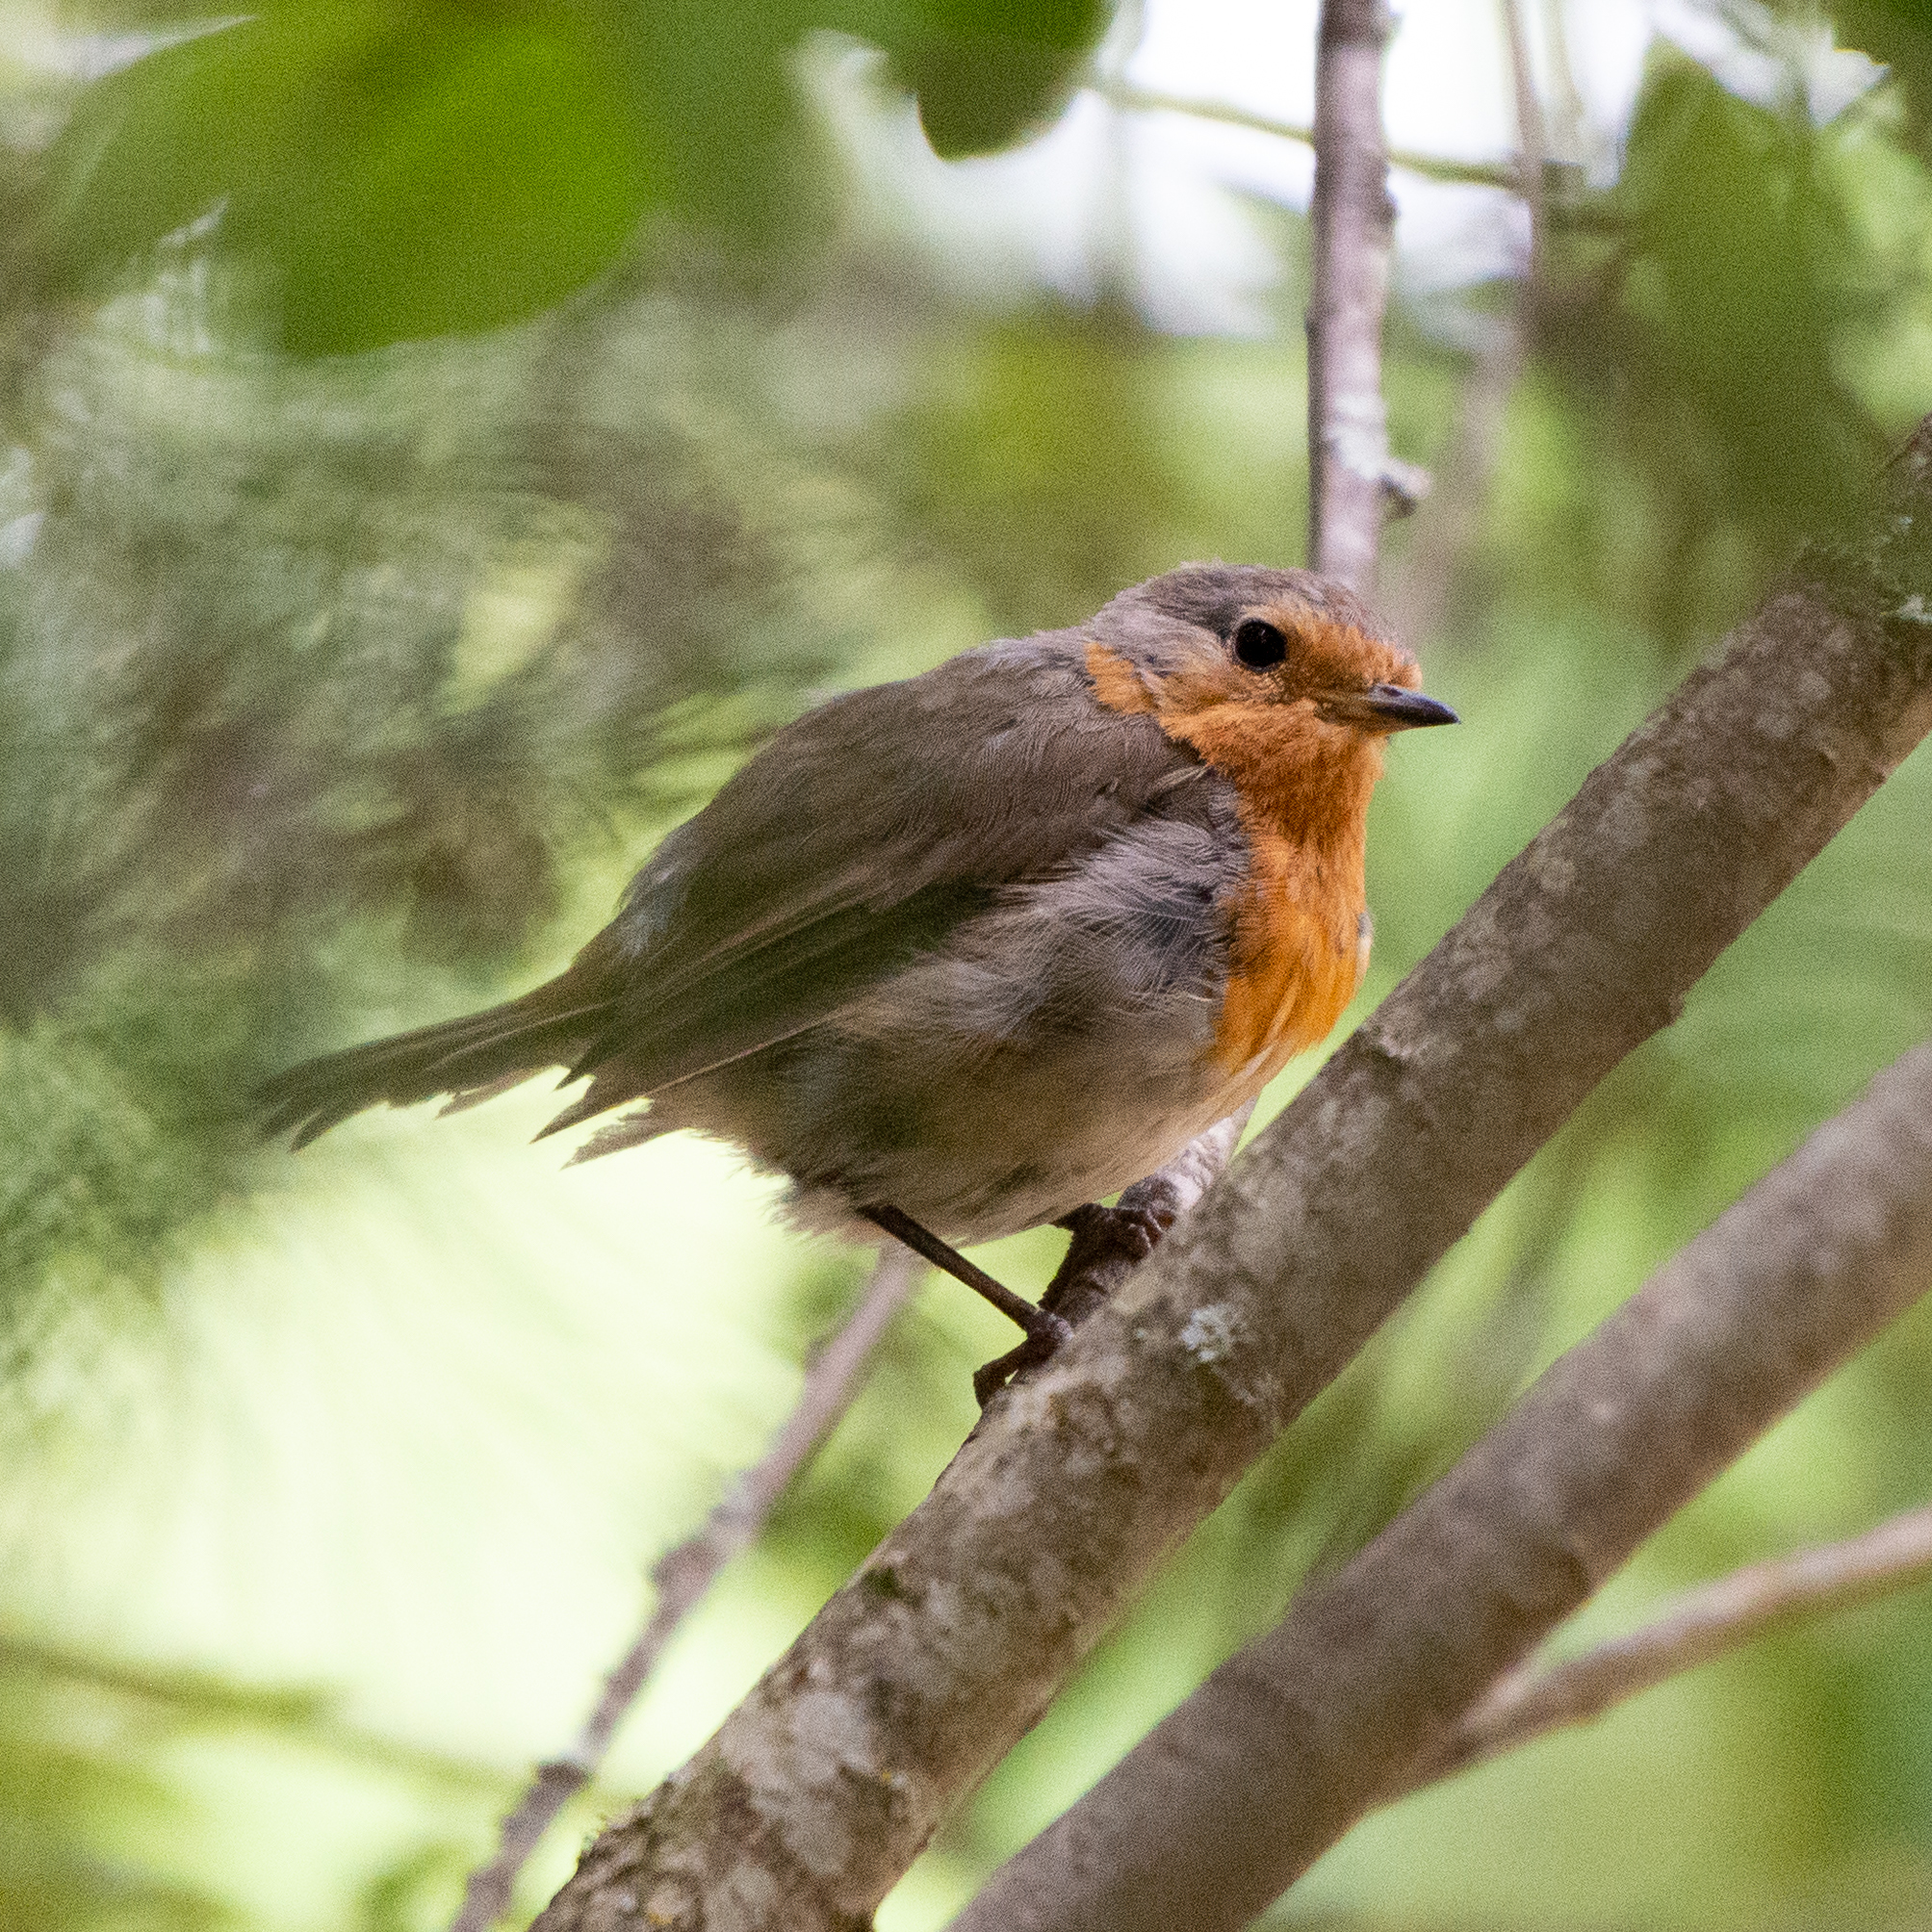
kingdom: Animalia
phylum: Chordata
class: Aves
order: Passeriformes
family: Muscicapidae
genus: Erithacus
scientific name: Erithacus rubecula
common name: European robin
